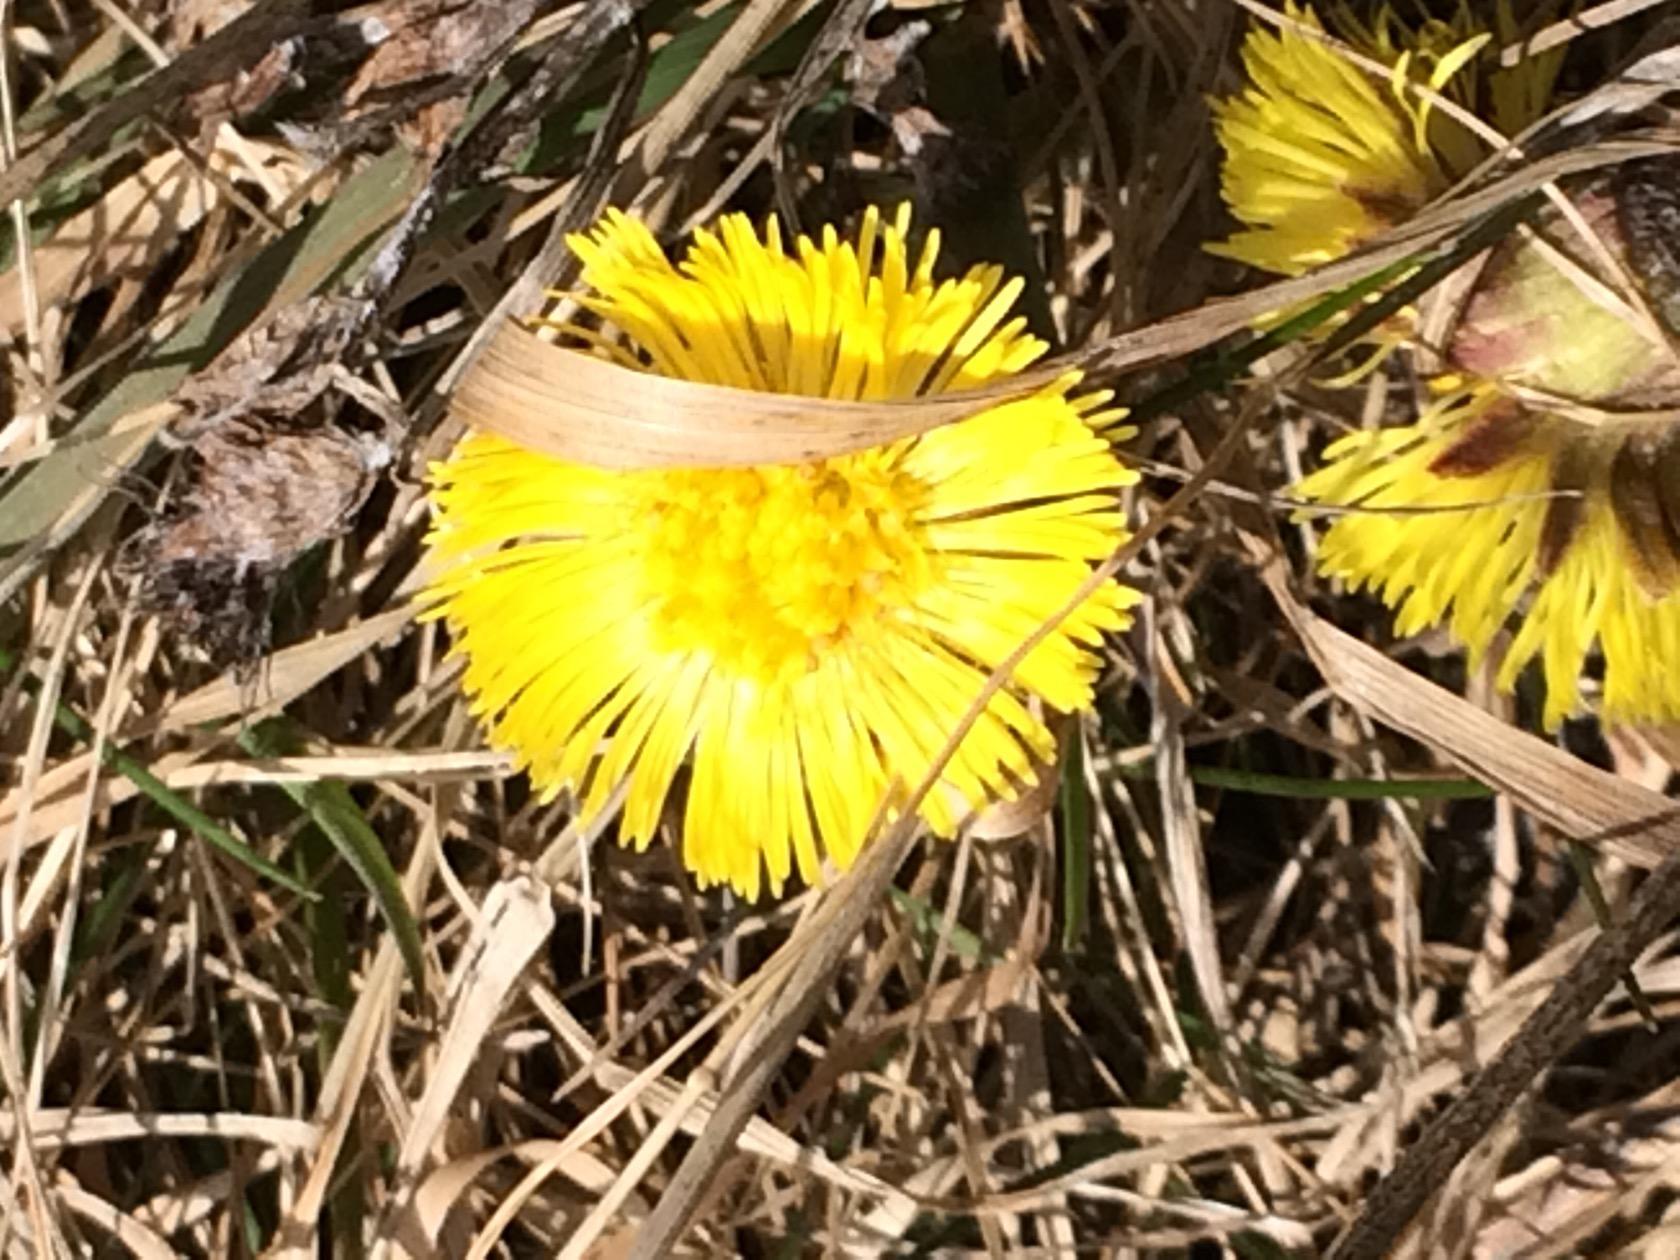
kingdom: Plantae
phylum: Tracheophyta
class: Magnoliopsida
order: Asterales
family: Asteraceae
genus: Tussilago
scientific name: Tussilago farfara
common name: Coltsfoot
